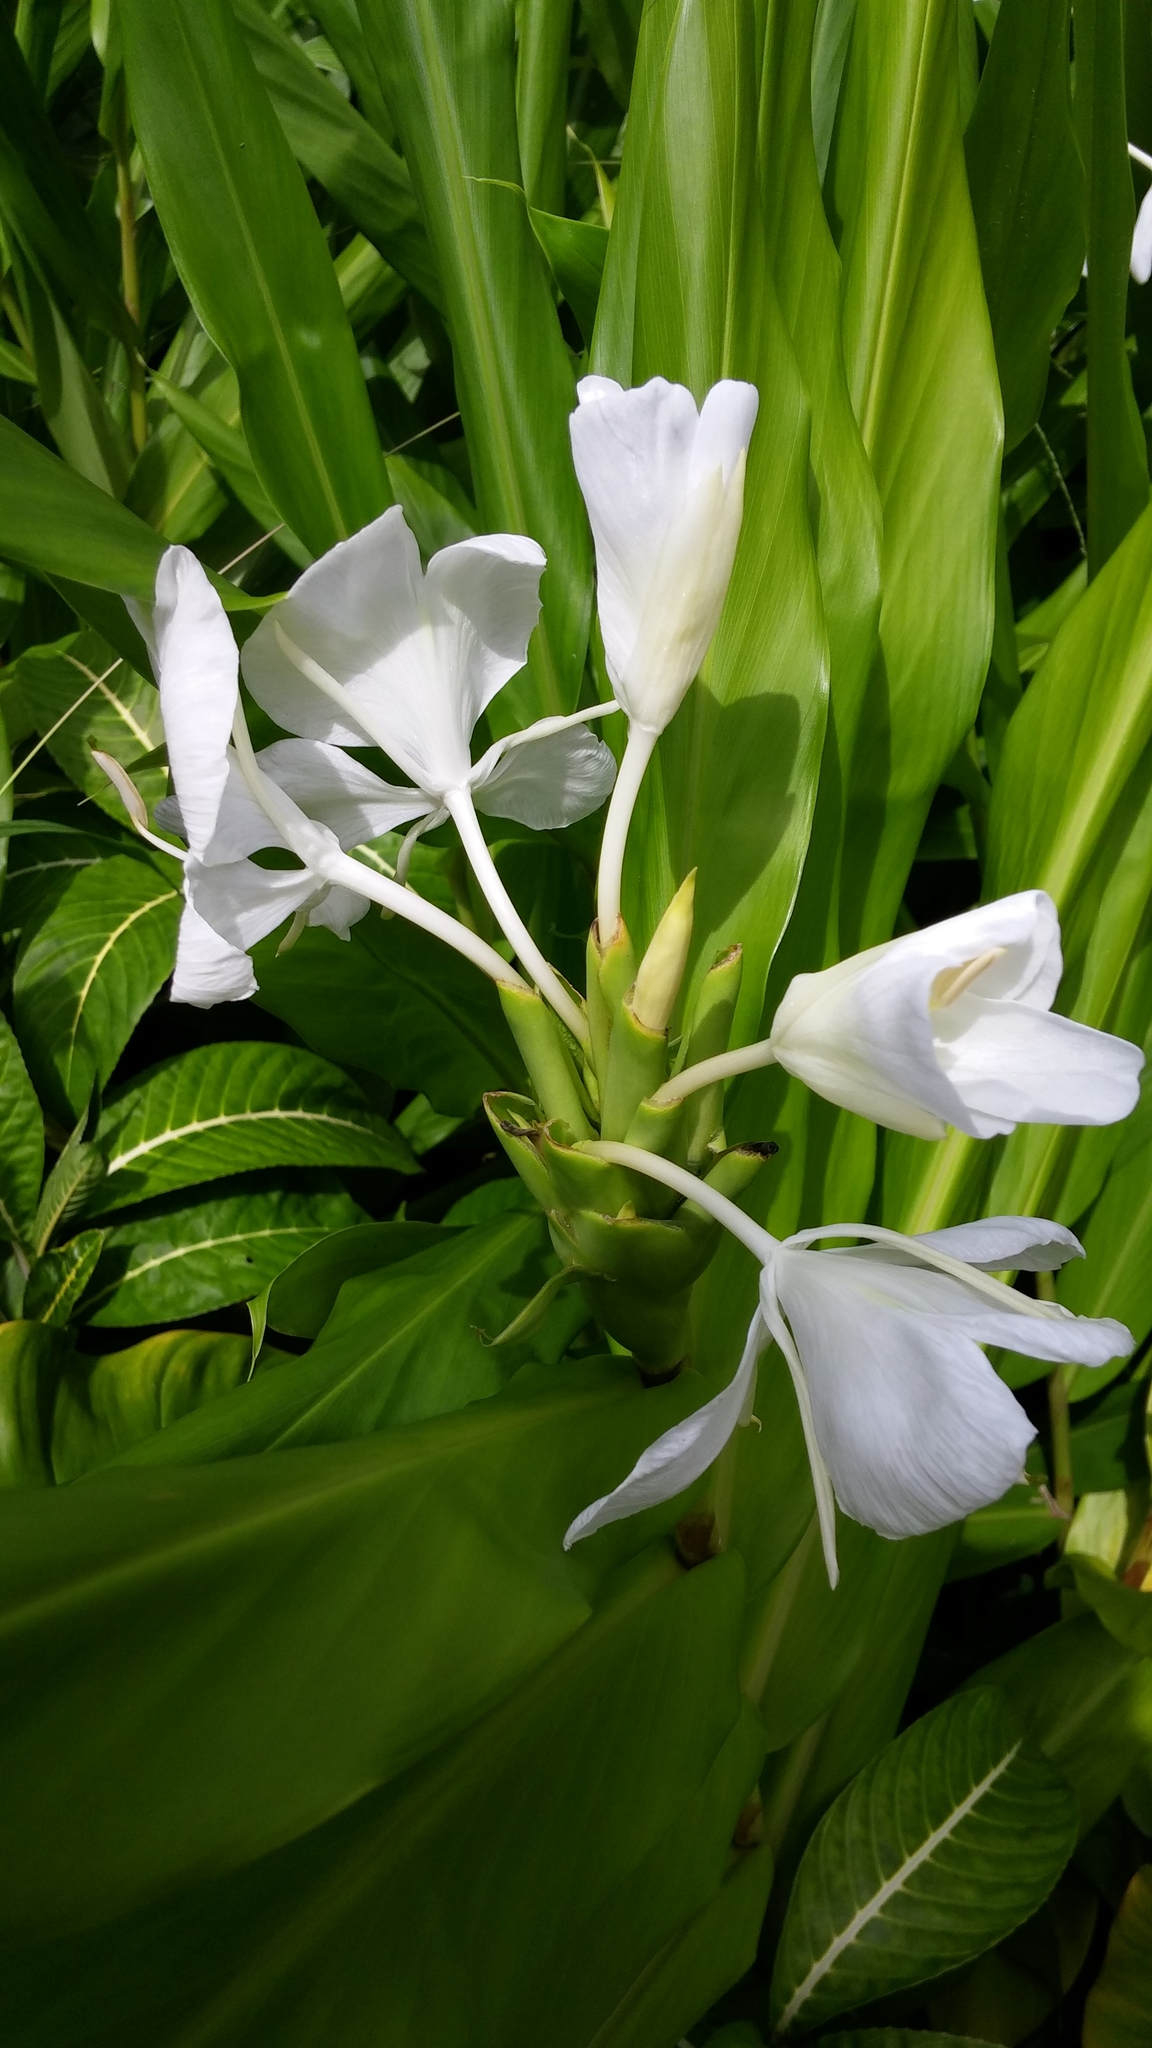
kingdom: Plantae
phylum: Tracheophyta
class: Liliopsida
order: Zingiberales
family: Zingiberaceae
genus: Hedychium
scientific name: Hedychium coronarium
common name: White garland-lily
